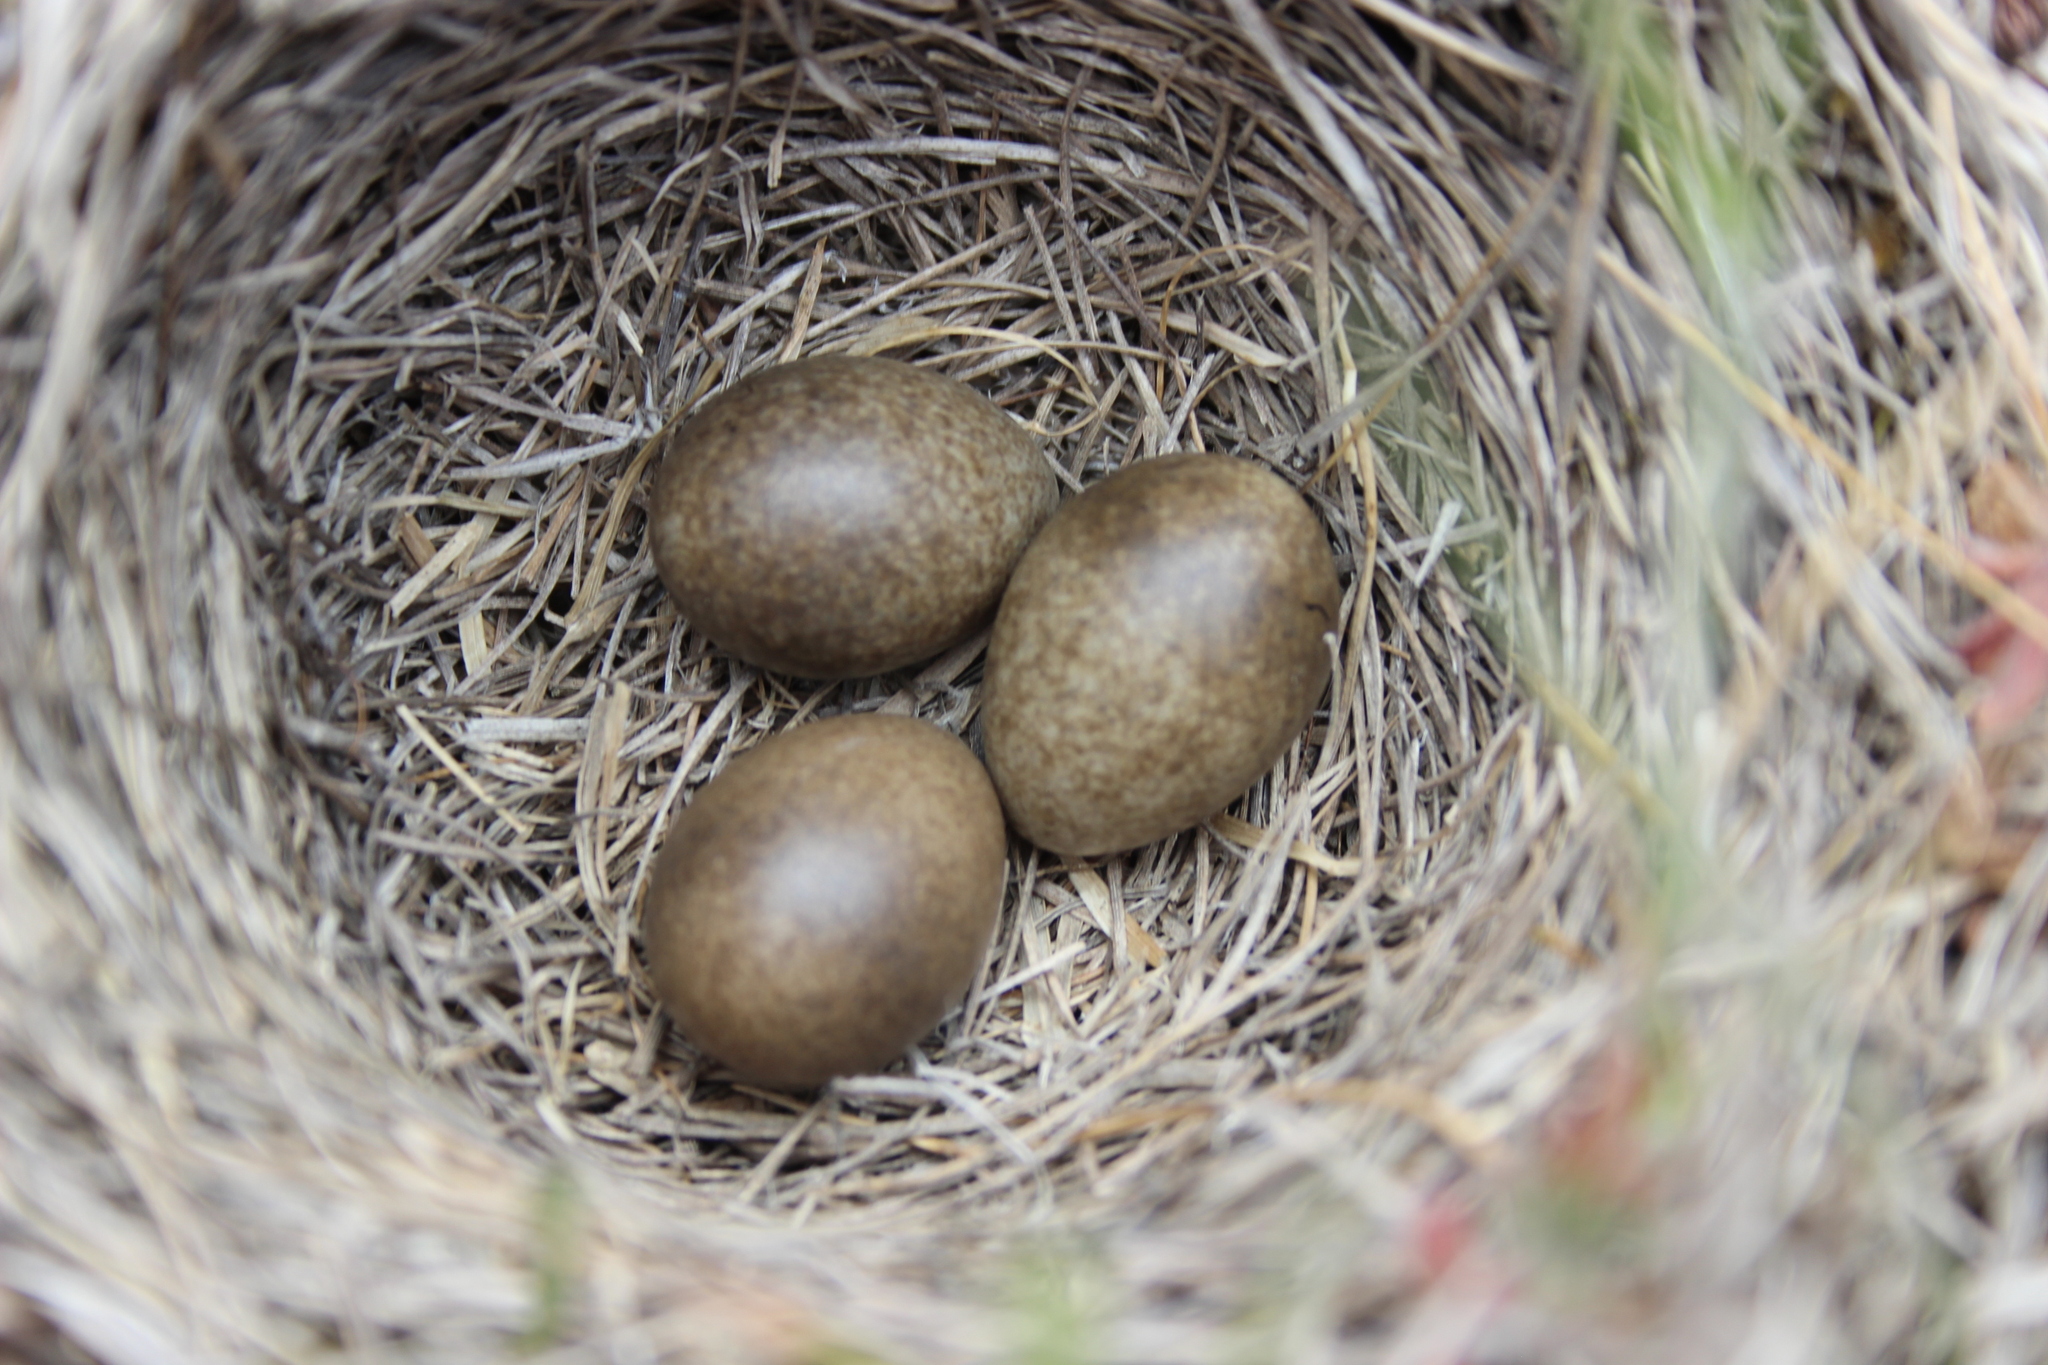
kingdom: Animalia
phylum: Chordata
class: Aves
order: Passeriformes
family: Alaudidae
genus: Alauda
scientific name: Alauda arvensis
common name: Eurasian skylark
